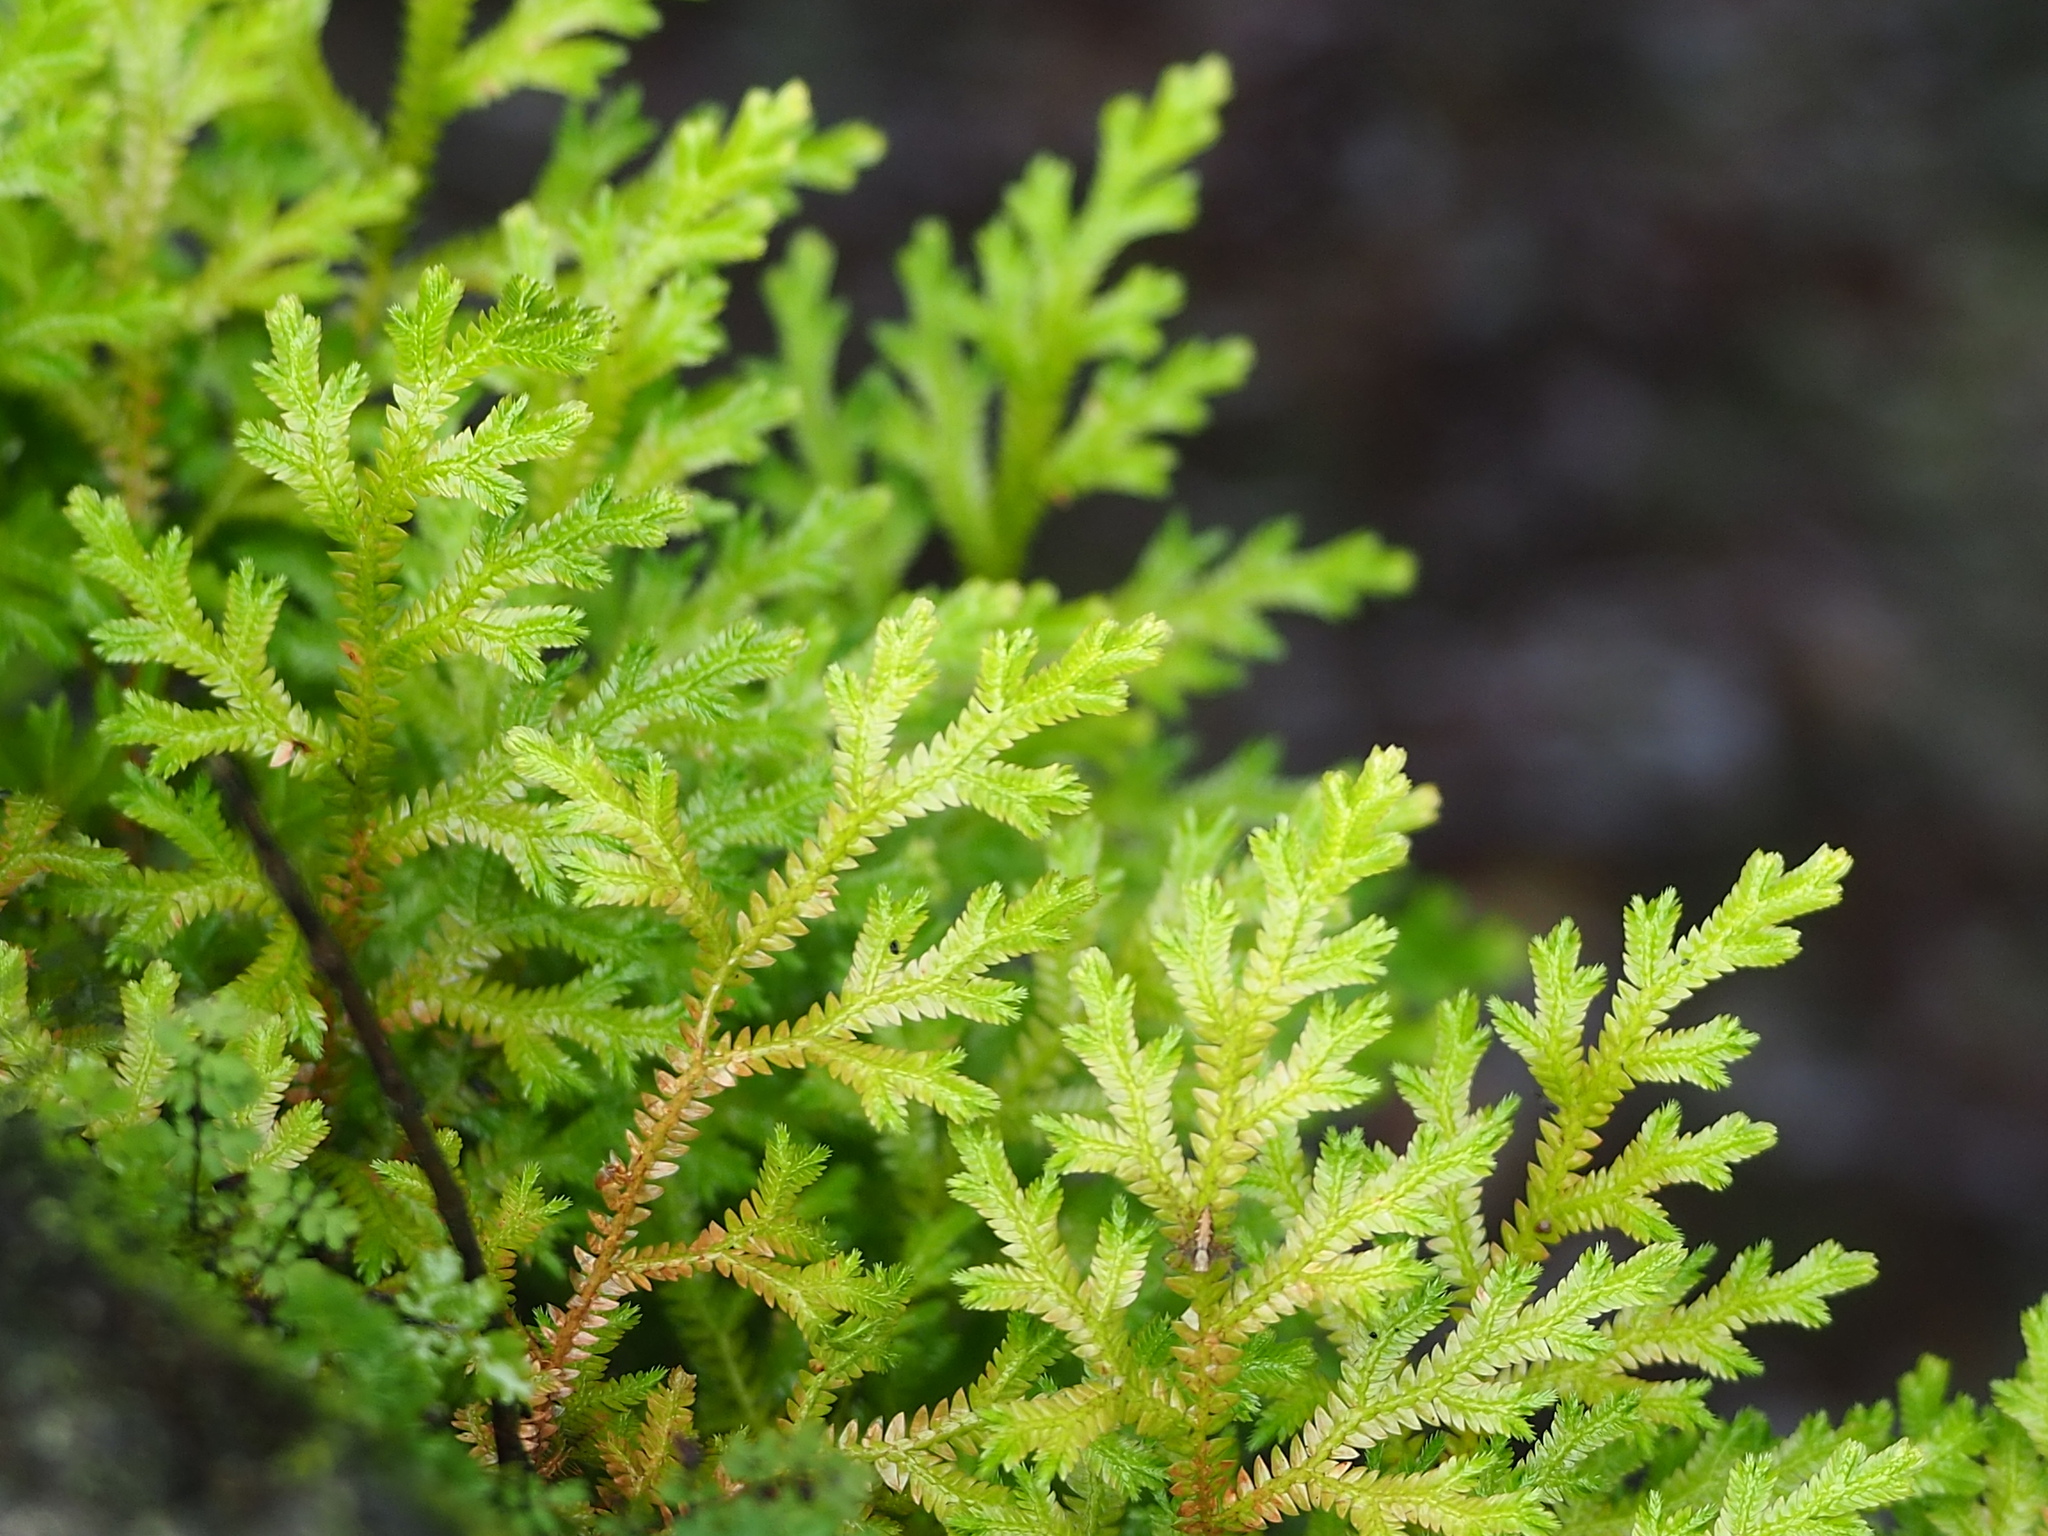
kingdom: Plantae
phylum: Tracheophyta
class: Lycopodiopsida
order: Selaginellales
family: Selaginellaceae
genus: Selaginella
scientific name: Selaginella repanda
